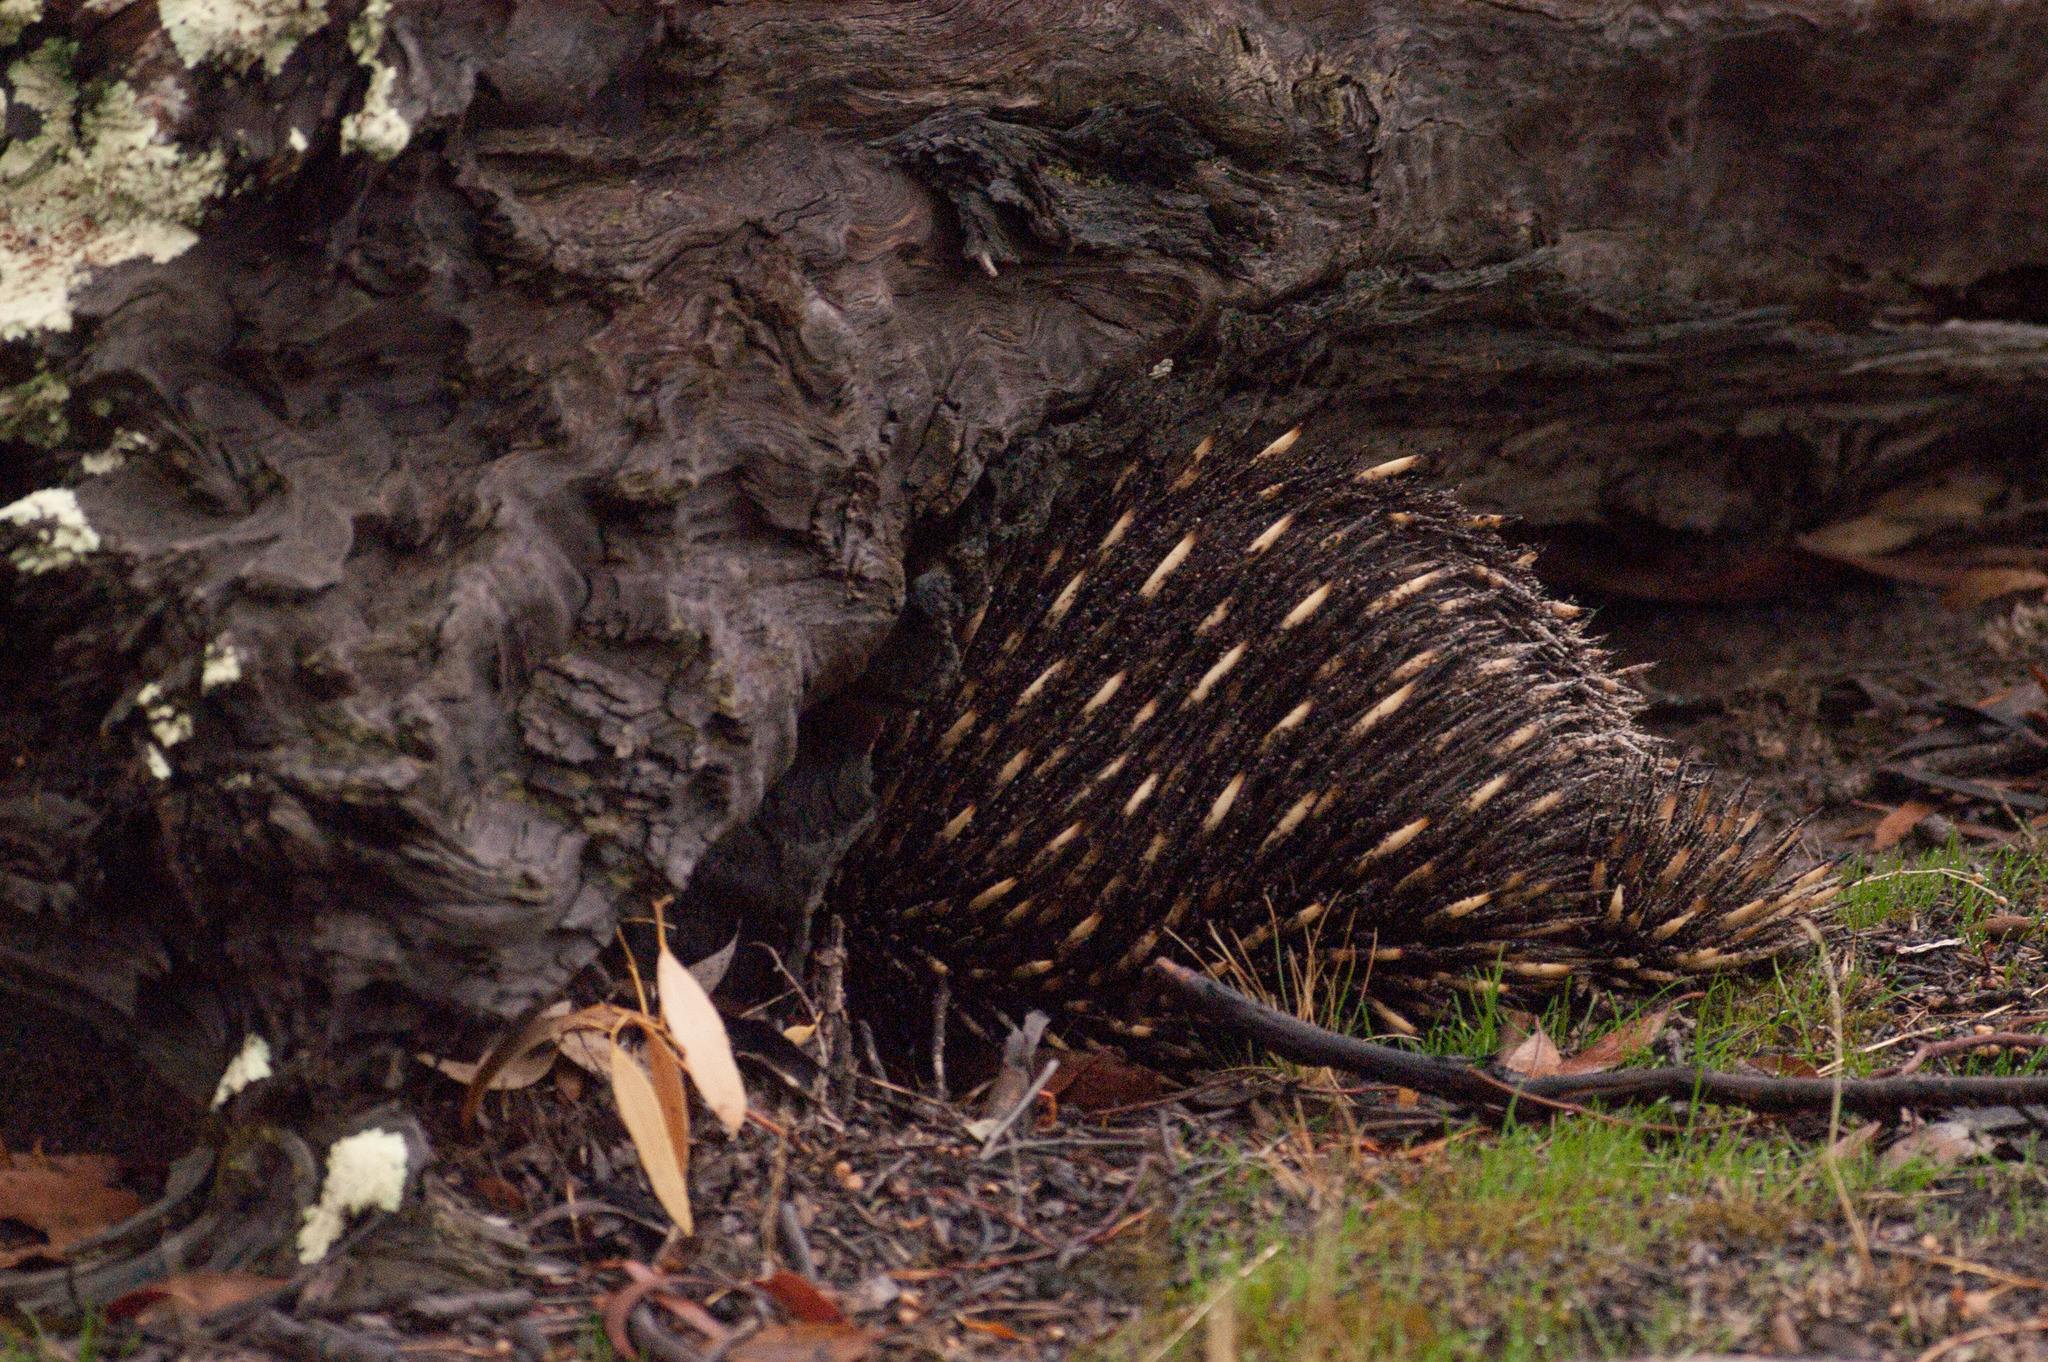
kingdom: Animalia
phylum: Chordata
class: Mammalia
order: Monotremata
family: Tachyglossidae
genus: Tachyglossus
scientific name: Tachyglossus aculeatus
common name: Short-beaked echidna
